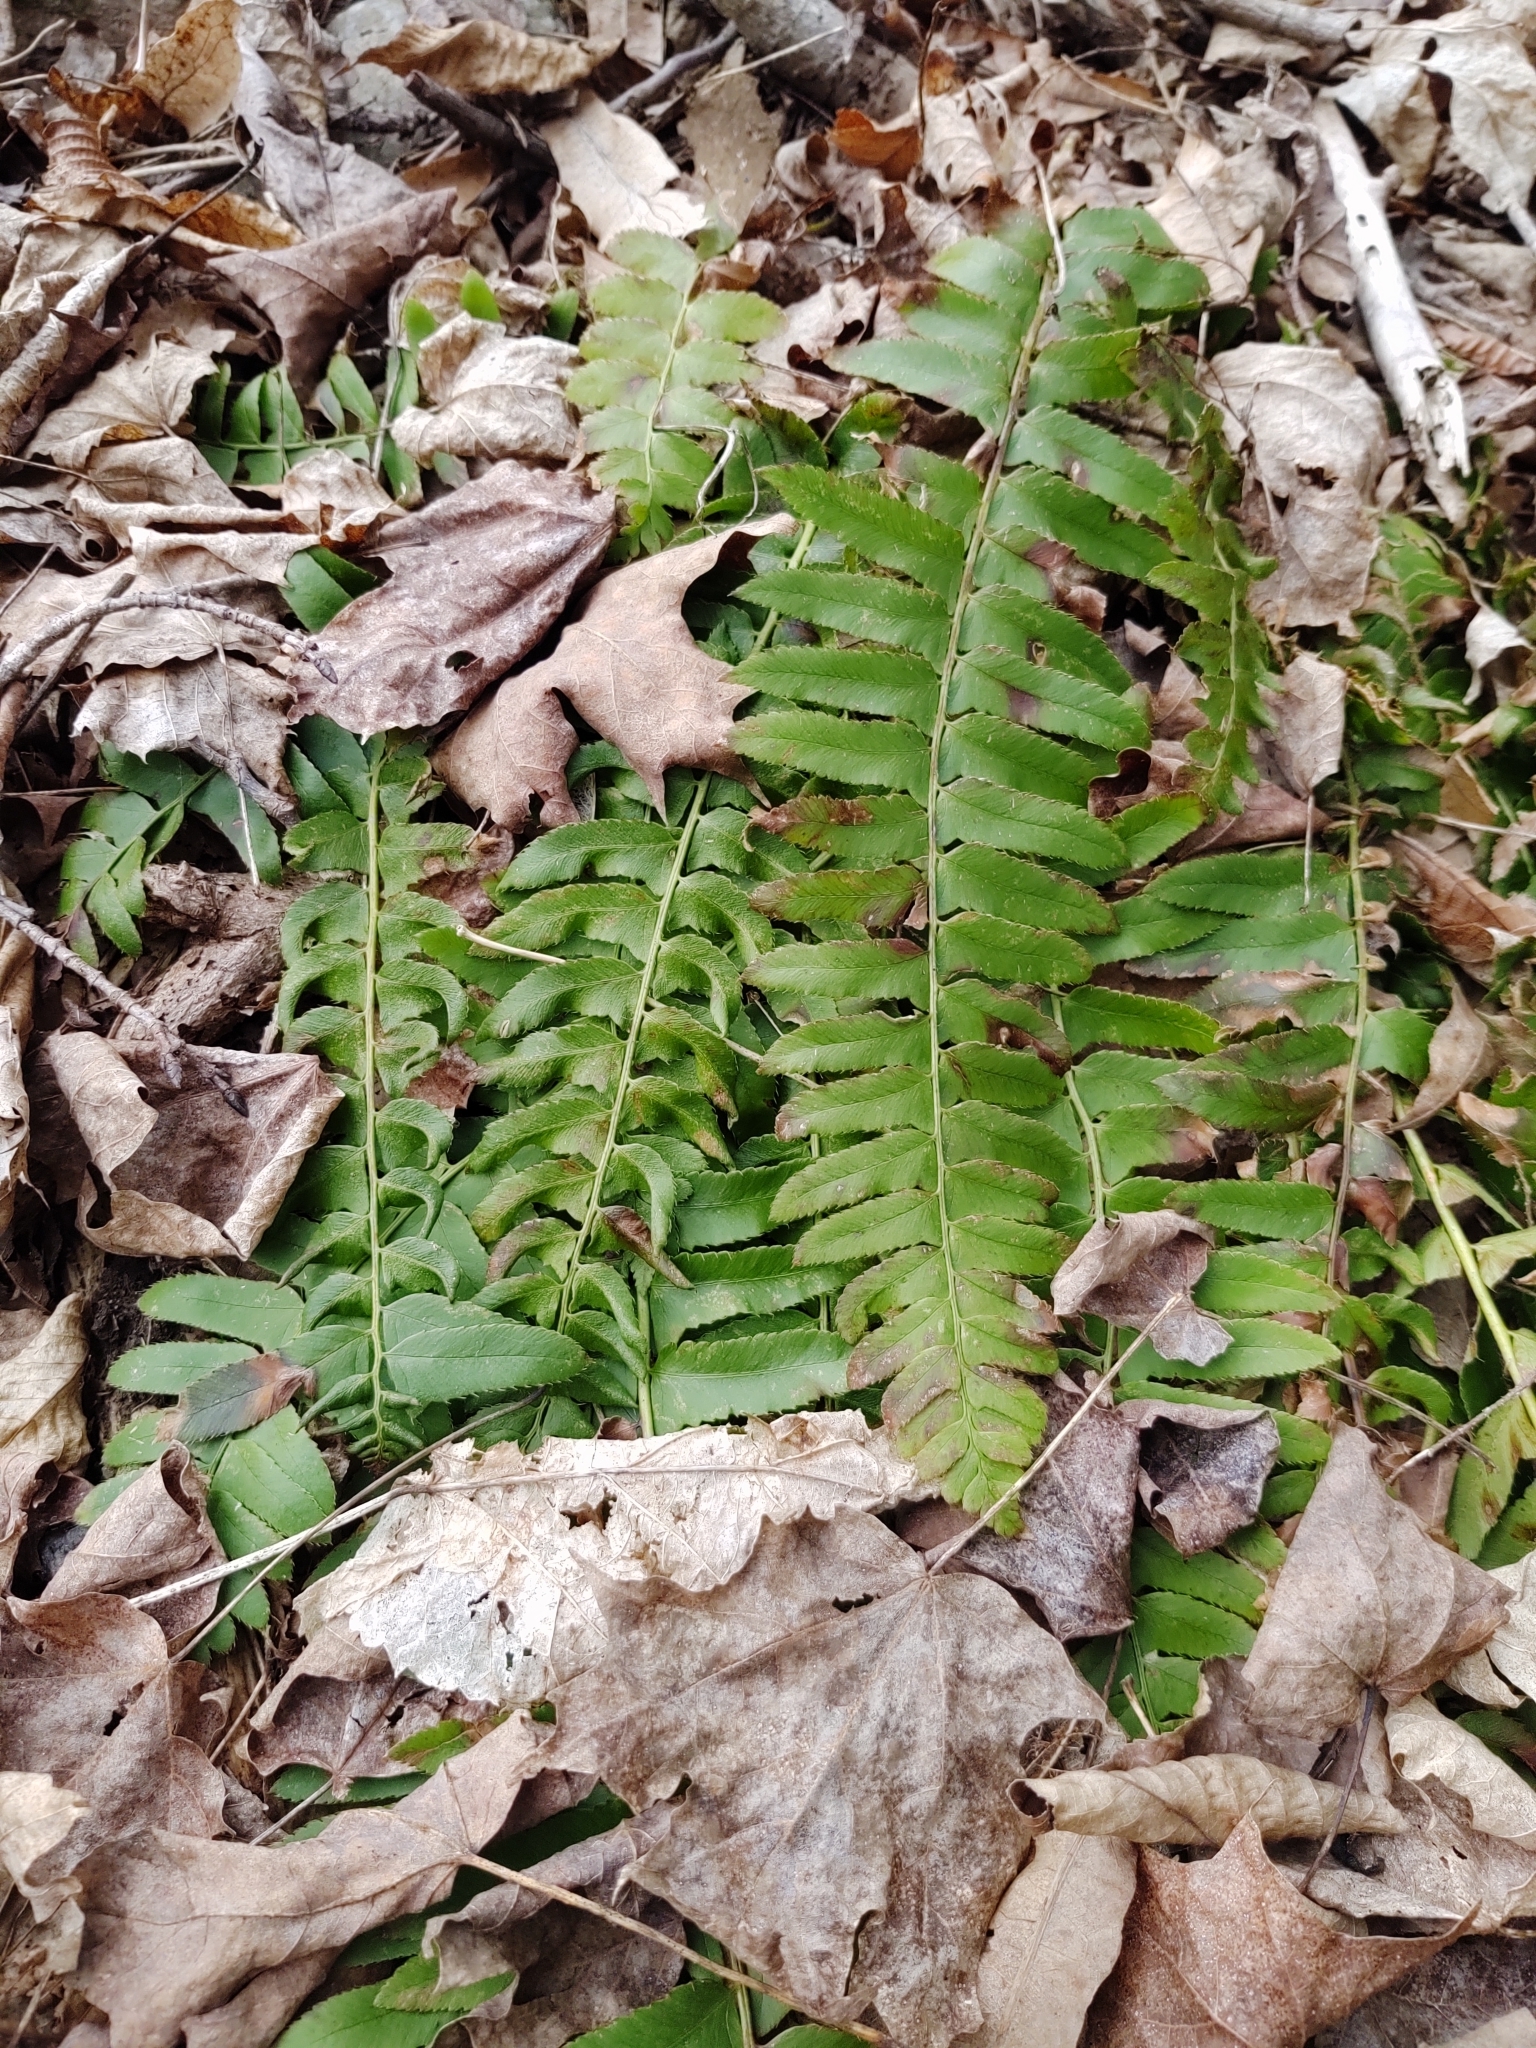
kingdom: Plantae
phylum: Tracheophyta
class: Polypodiopsida
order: Polypodiales
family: Dryopteridaceae
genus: Polystichum
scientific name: Polystichum acrostichoides
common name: Christmas fern
